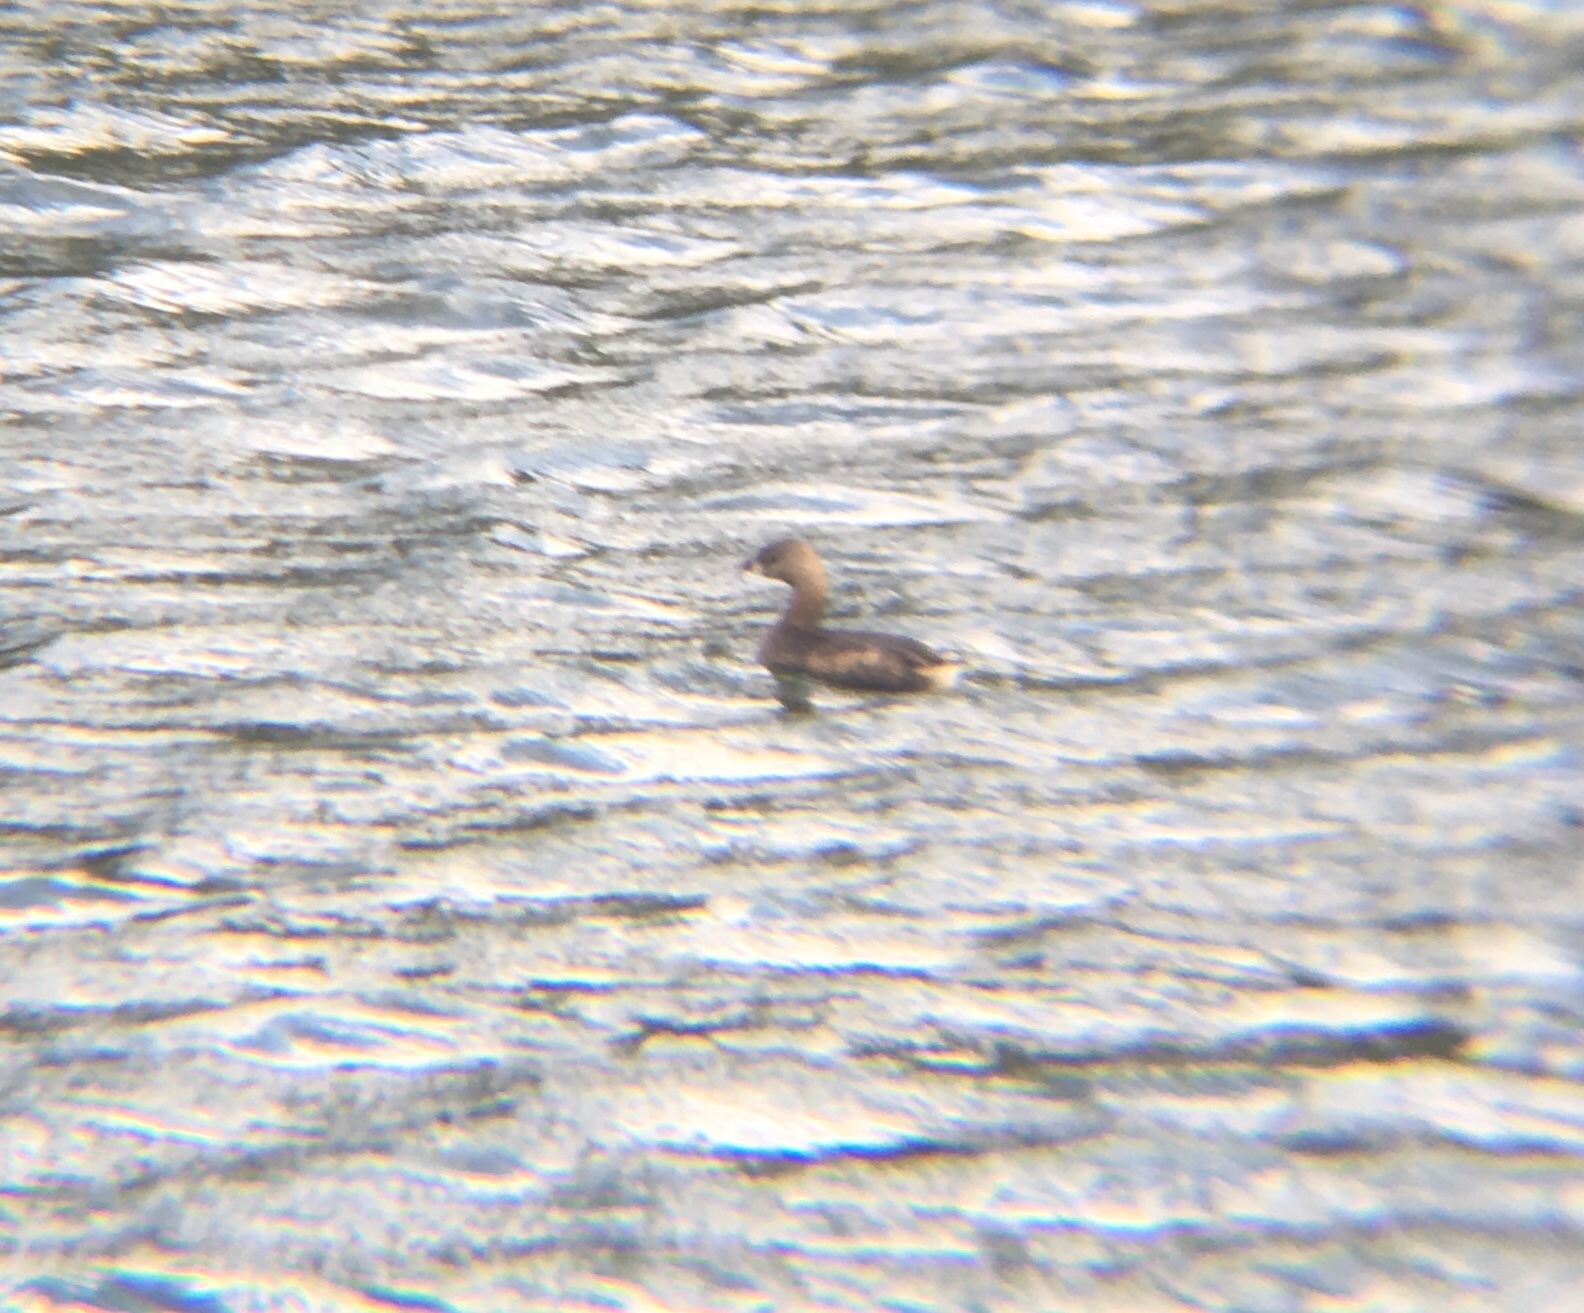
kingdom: Animalia
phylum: Chordata
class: Aves
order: Podicipediformes
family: Podicipedidae
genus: Podilymbus
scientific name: Podilymbus podiceps
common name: Pied-billed grebe
